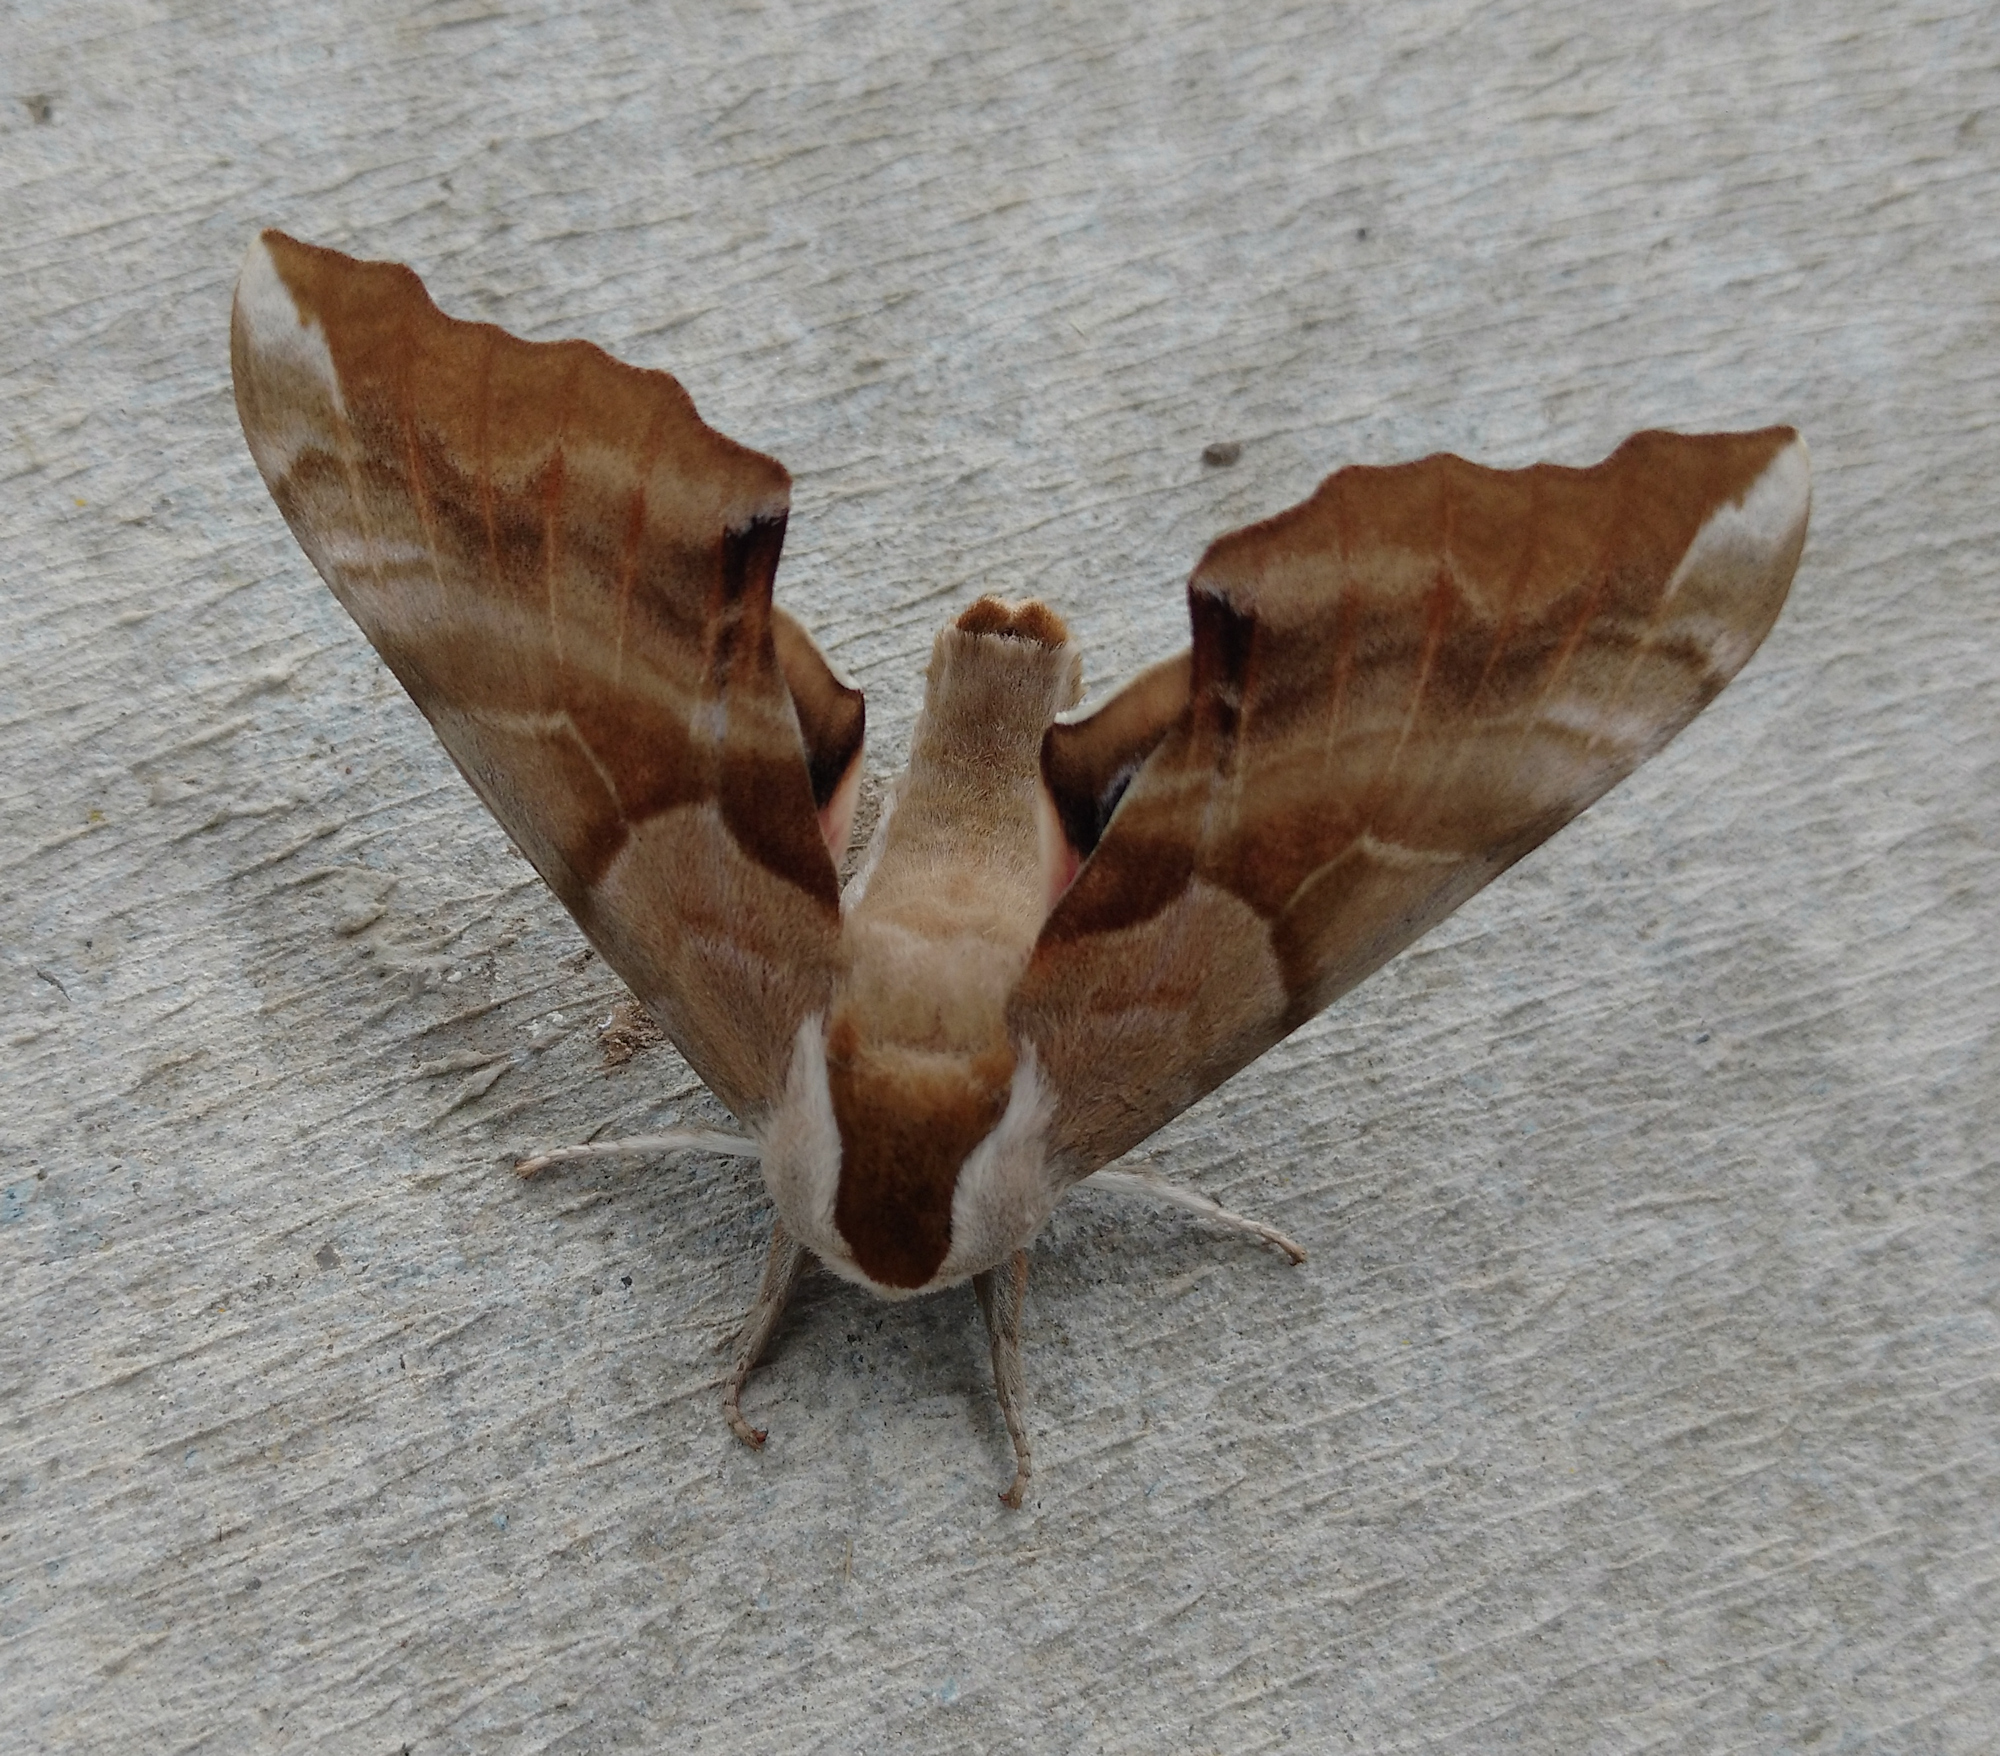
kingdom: Animalia
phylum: Arthropoda
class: Insecta
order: Lepidoptera
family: Sphingidae
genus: Smerinthus
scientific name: Smerinthus cerisyi
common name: Cerisy's sphinx moth
